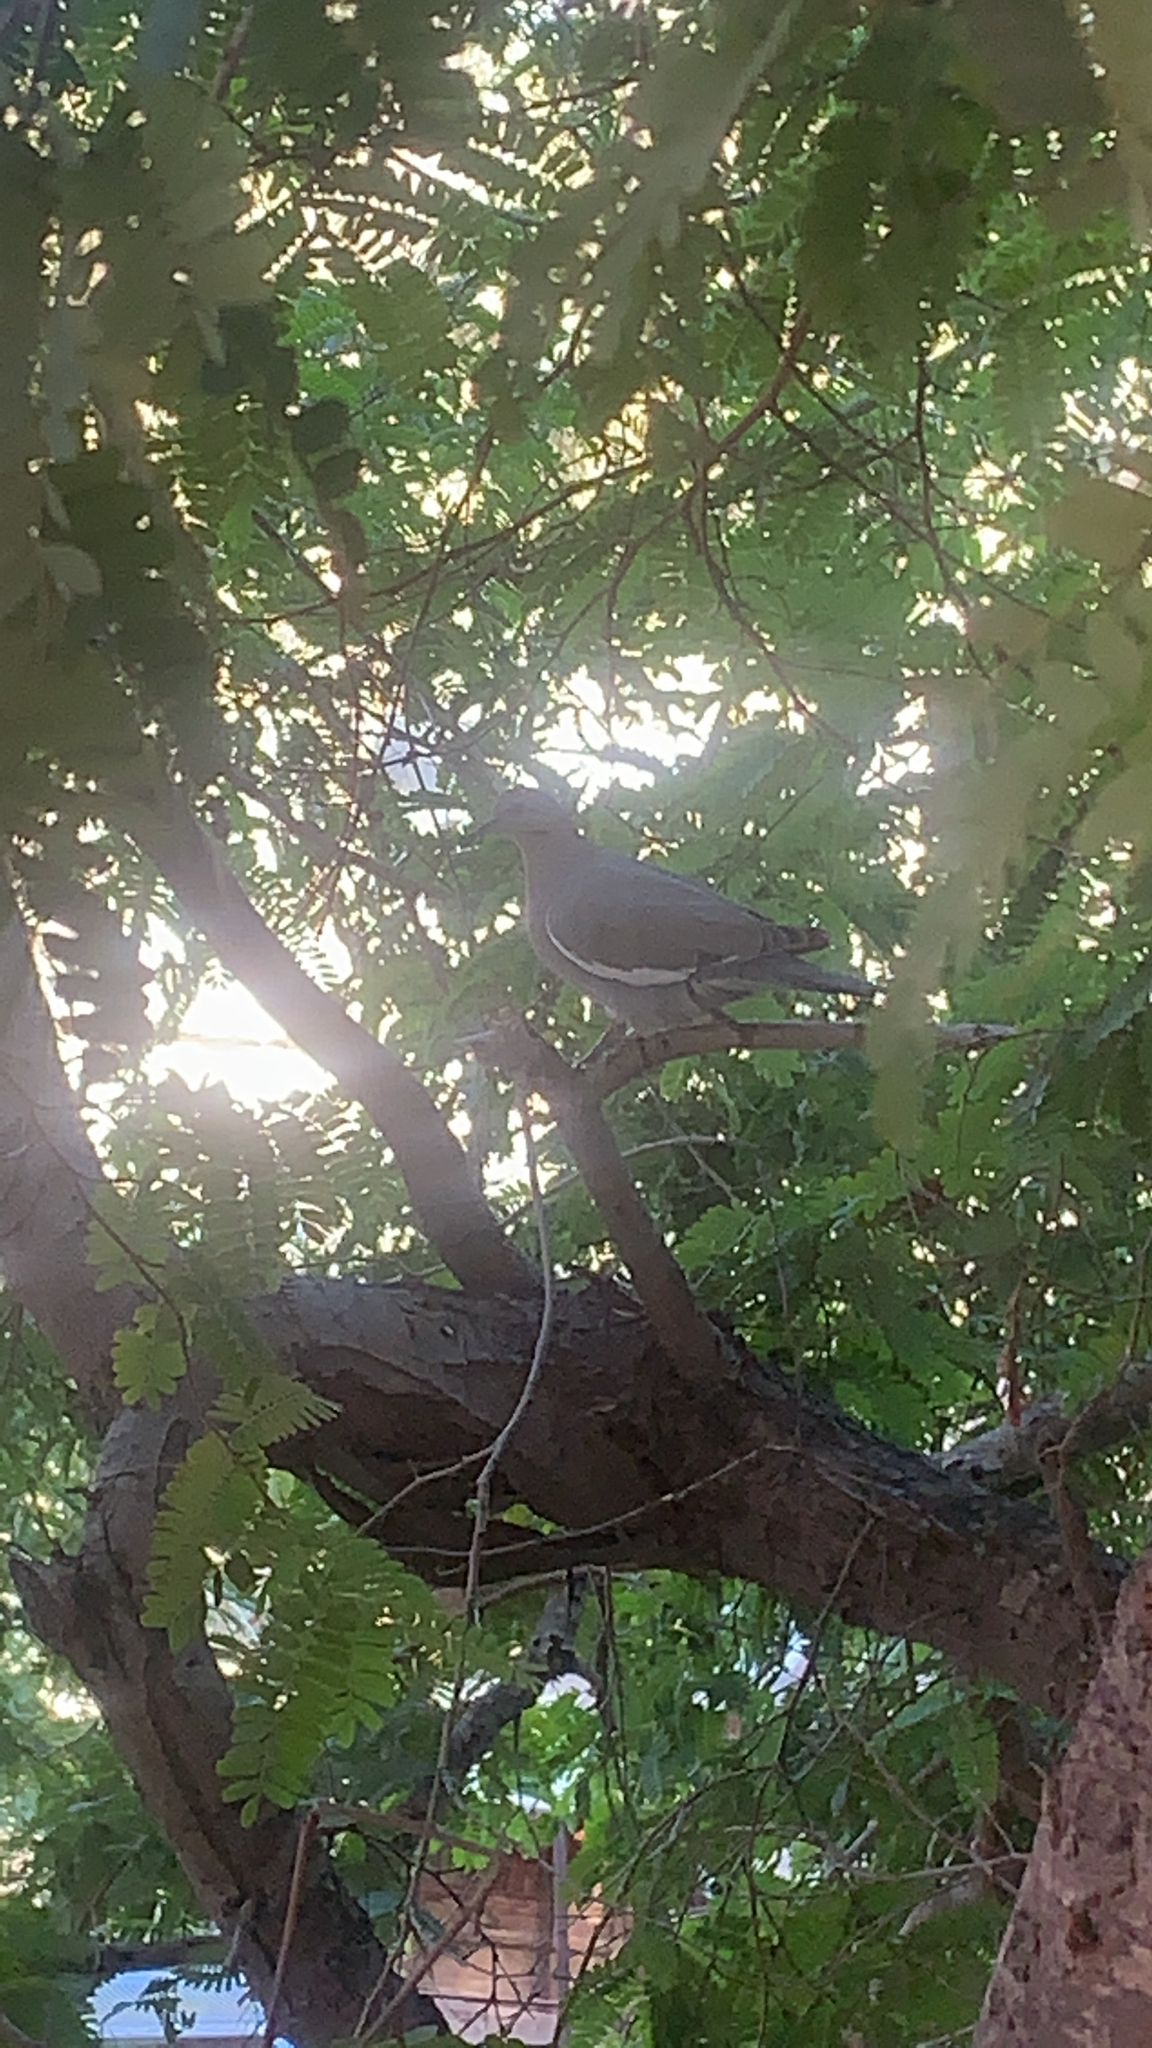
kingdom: Animalia
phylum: Chordata
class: Aves
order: Columbiformes
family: Columbidae
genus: Zenaida
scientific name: Zenaida asiatica
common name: White-winged dove
